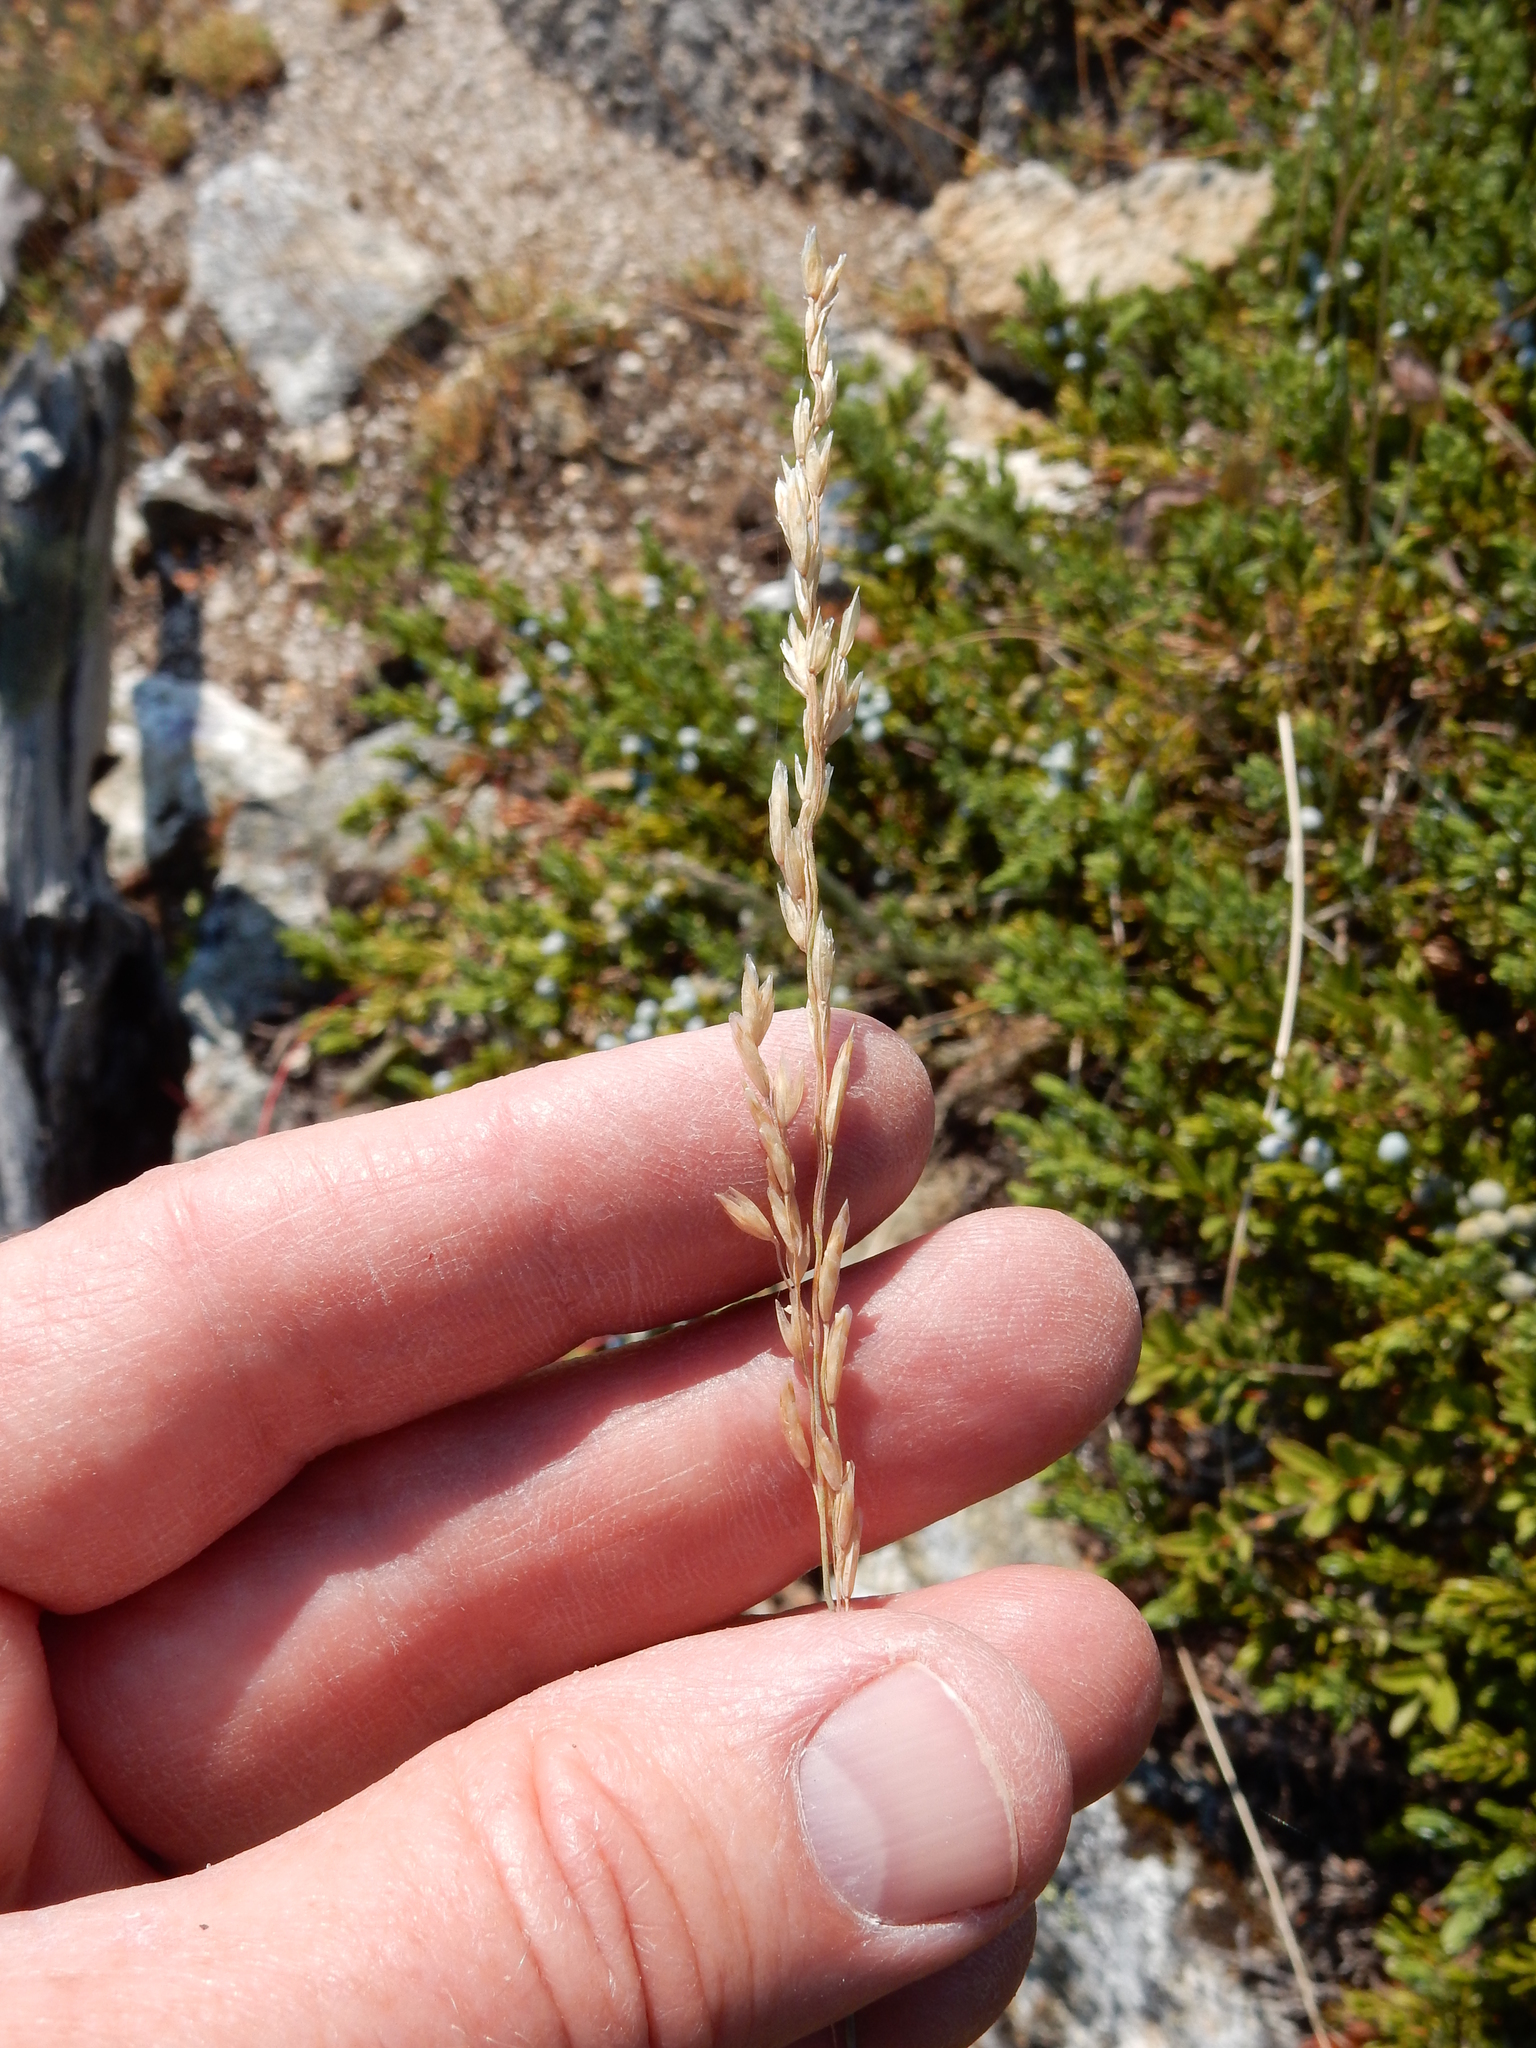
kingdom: Plantae
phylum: Tracheophyta
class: Liliopsida
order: Poales
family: Poaceae
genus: Poa
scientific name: Poa secunda
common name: Sandberg bluegrass
